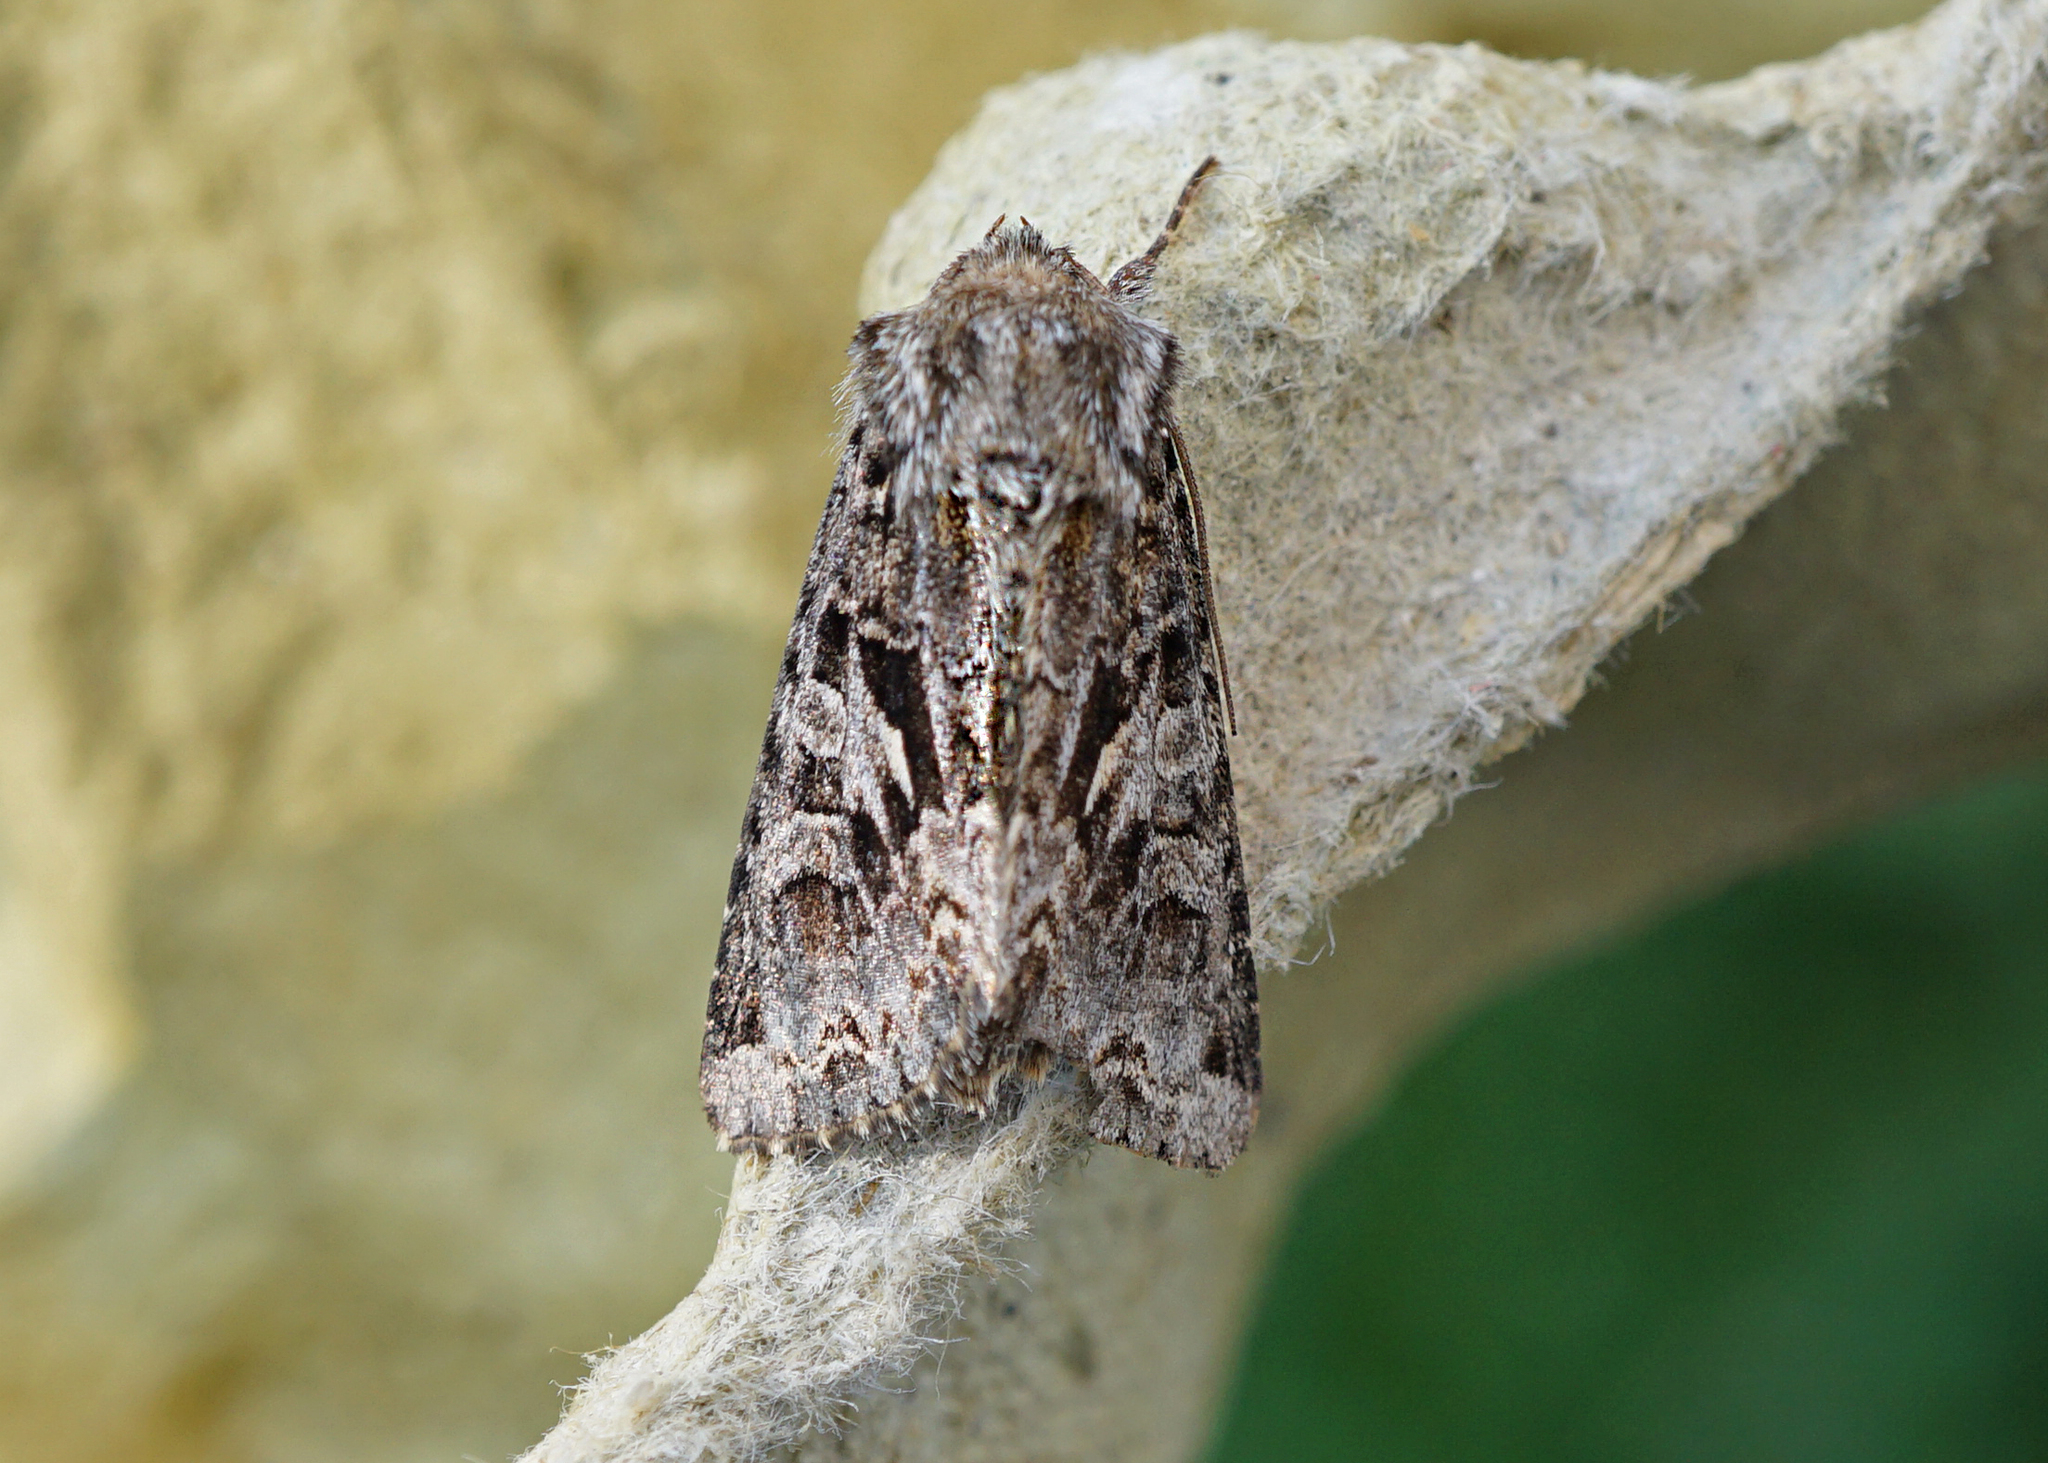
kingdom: Animalia
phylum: Arthropoda
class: Insecta
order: Lepidoptera
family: Noctuidae
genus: Hada
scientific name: Hada plebeja
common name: Shears
